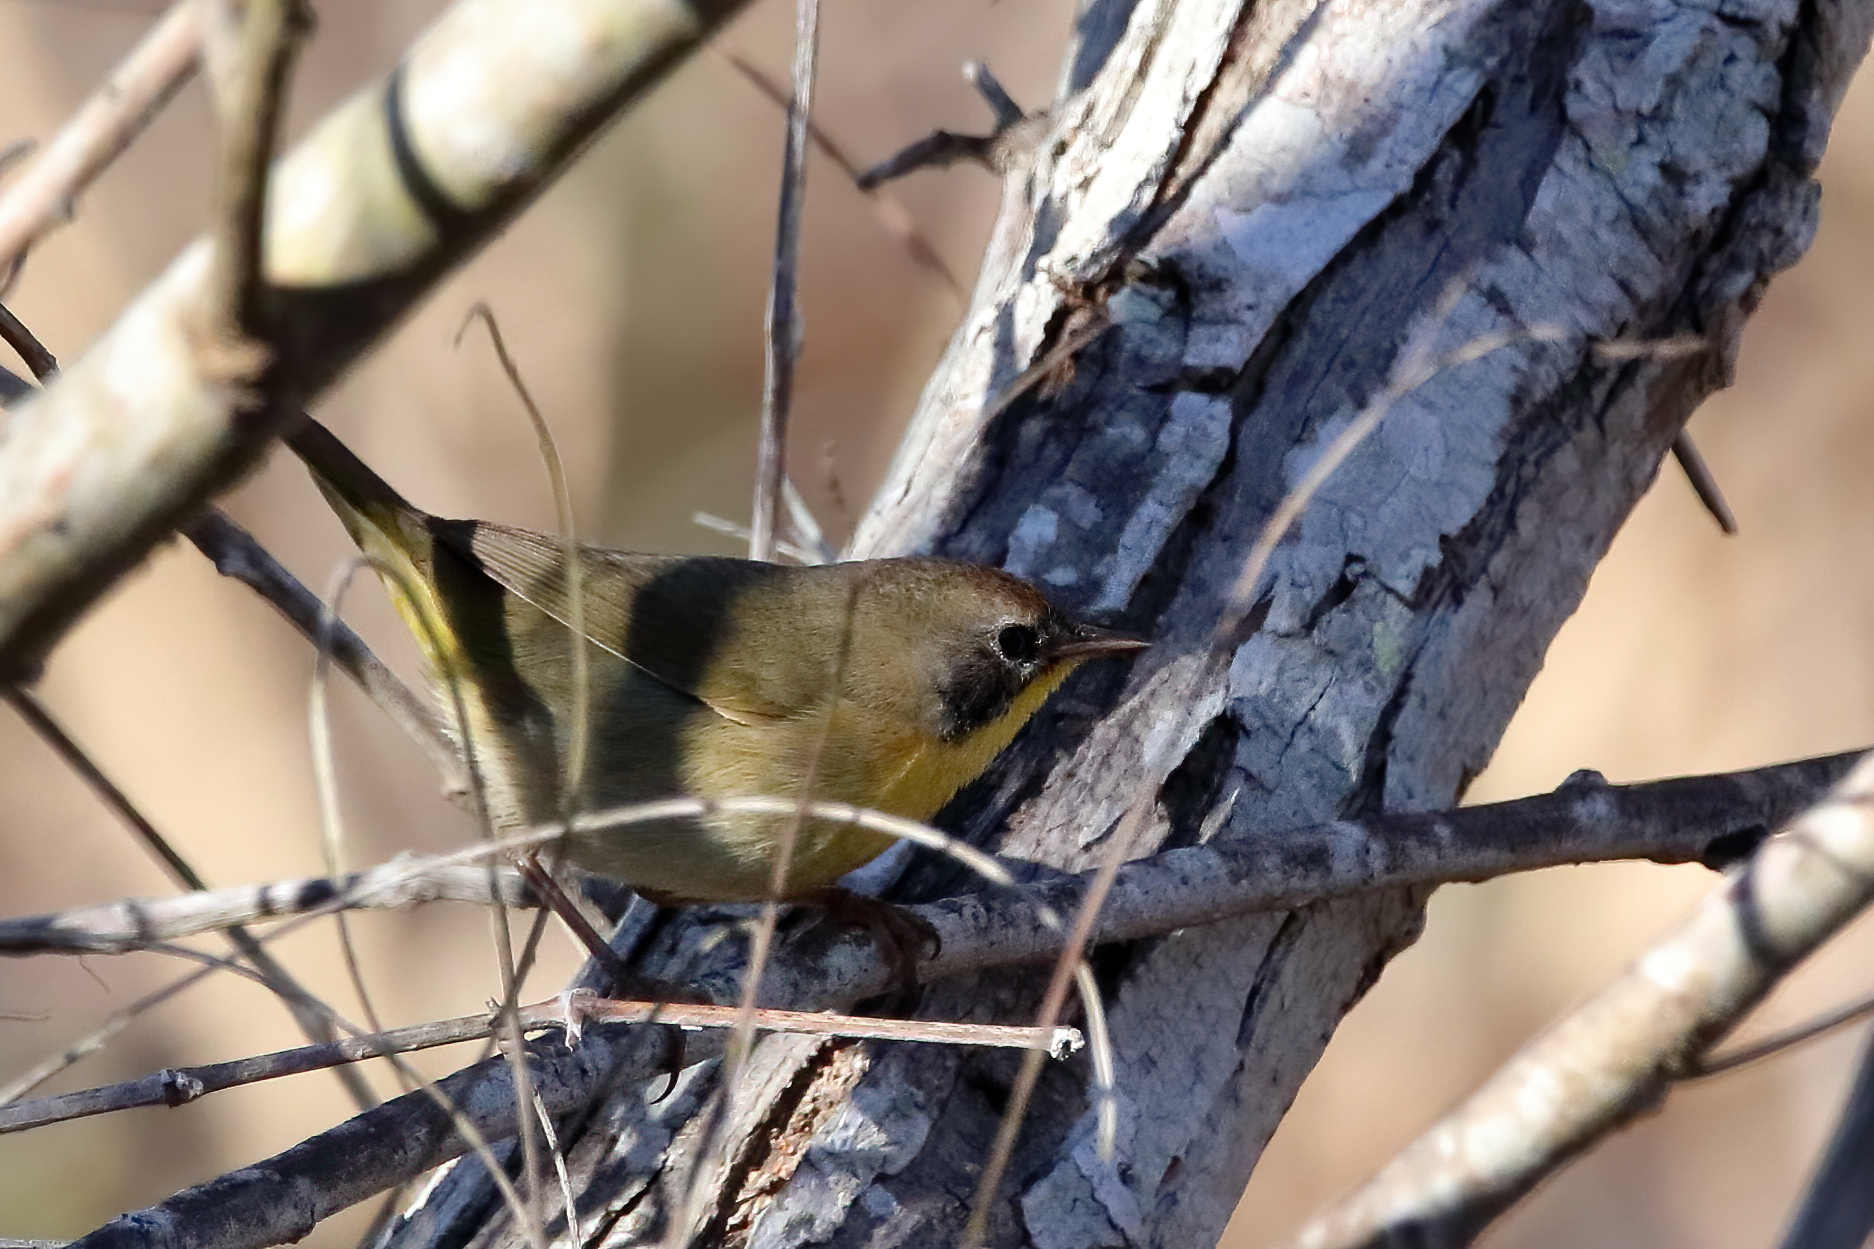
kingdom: Animalia
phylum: Chordata
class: Aves
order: Passeriformes
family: Parulidae
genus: Geothlypis
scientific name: Geothlypis trichas
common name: Common yellowthroat
